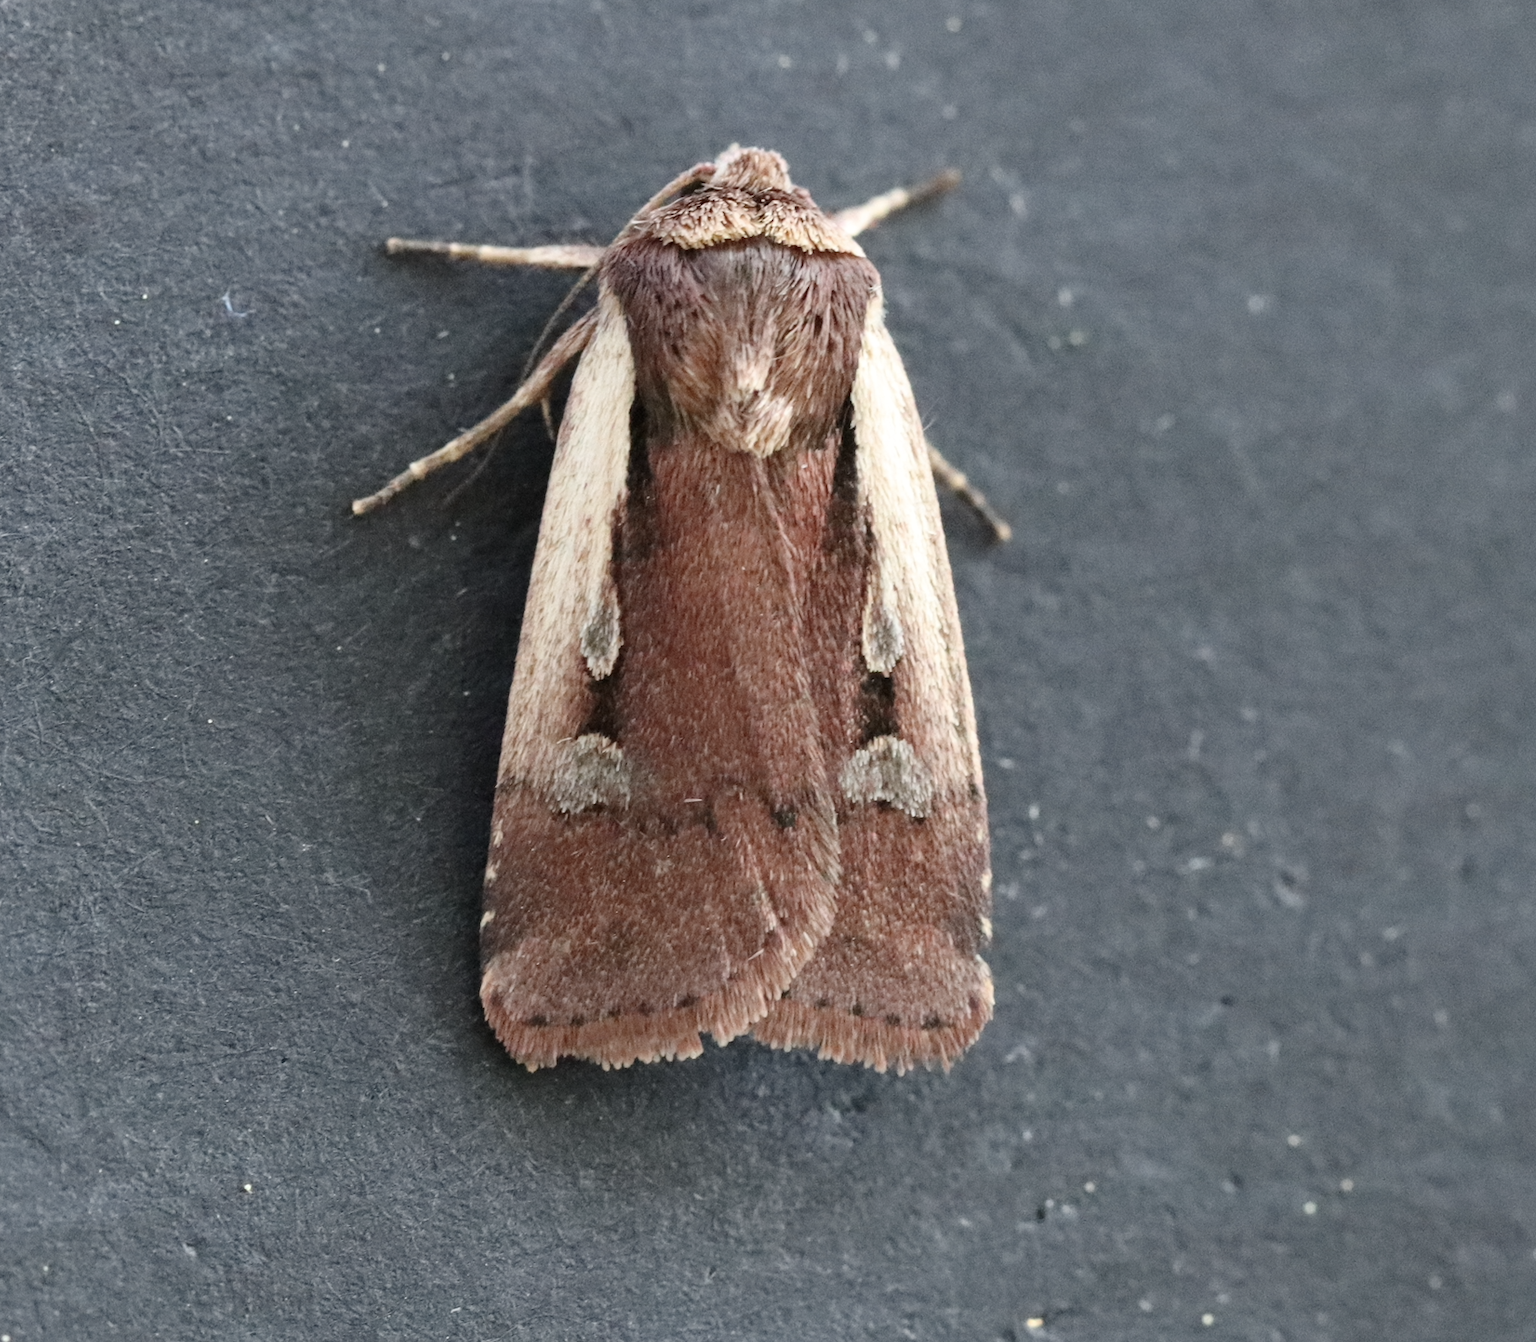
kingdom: Animalia
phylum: Arthropoda
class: Insecta
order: Lepidoptera
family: Noctuidae
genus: Ochropleura
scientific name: Ochropleura plecta
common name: Flame shoulder
